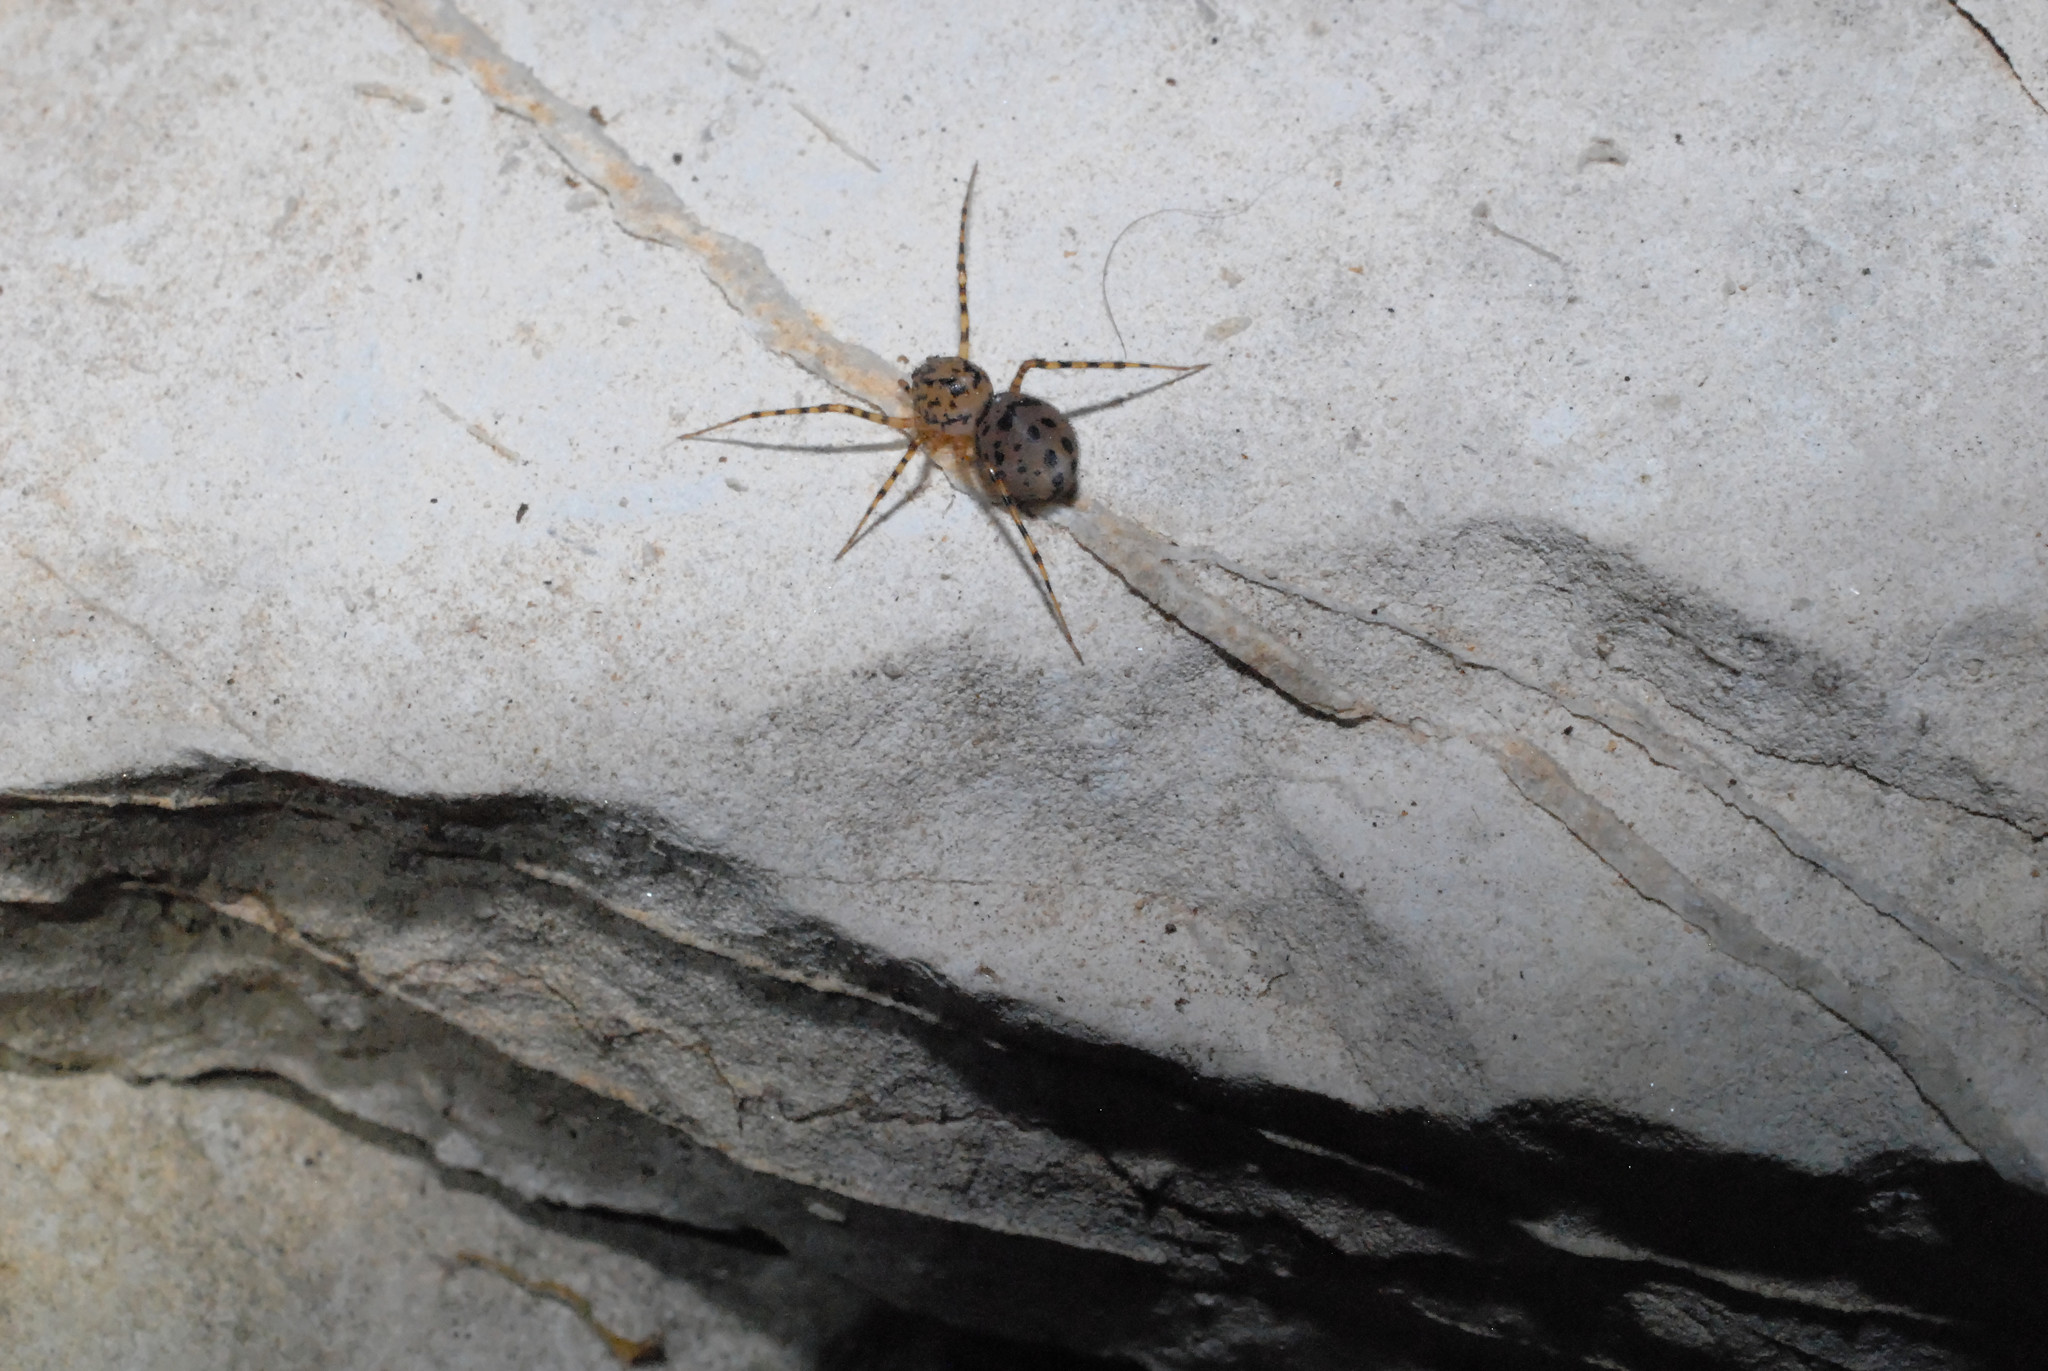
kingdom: Animalia
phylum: Arthropoda
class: Arachnida
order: Araneae
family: Scytodidae
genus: Scytodes
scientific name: Scytodes thoracica
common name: Spitting spider
